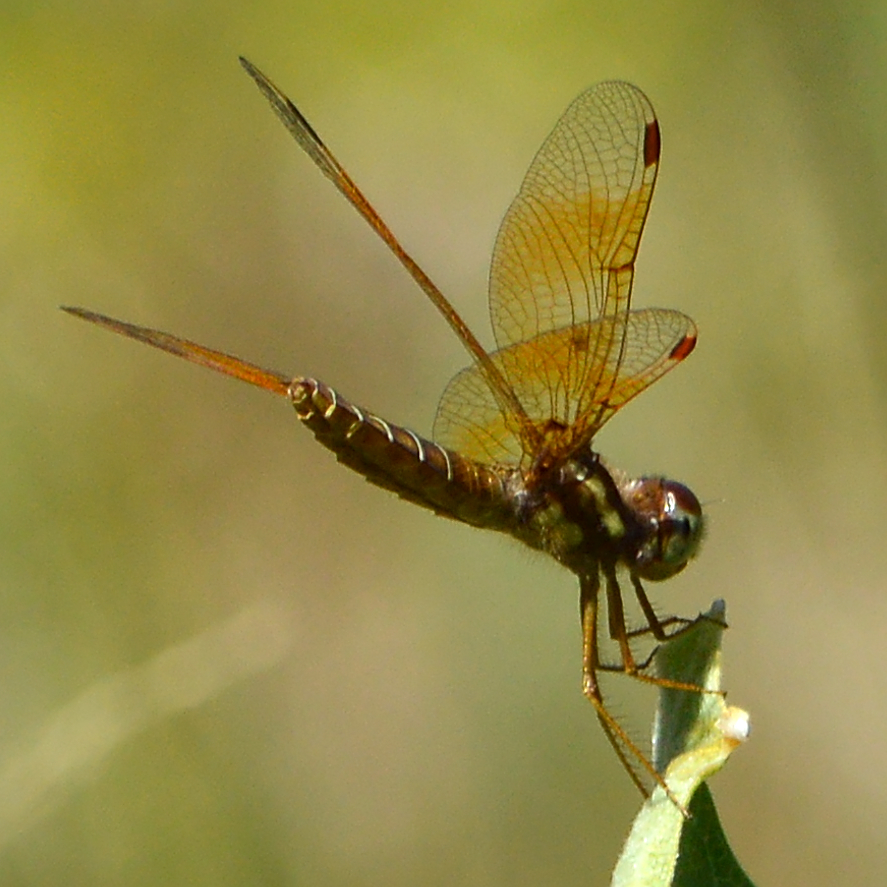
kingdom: Animalia
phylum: Arthropoda
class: Insecta
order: Odonata
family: Libellulidae
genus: Perithemis
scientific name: Perithemis tenera
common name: Eastern amberwing
